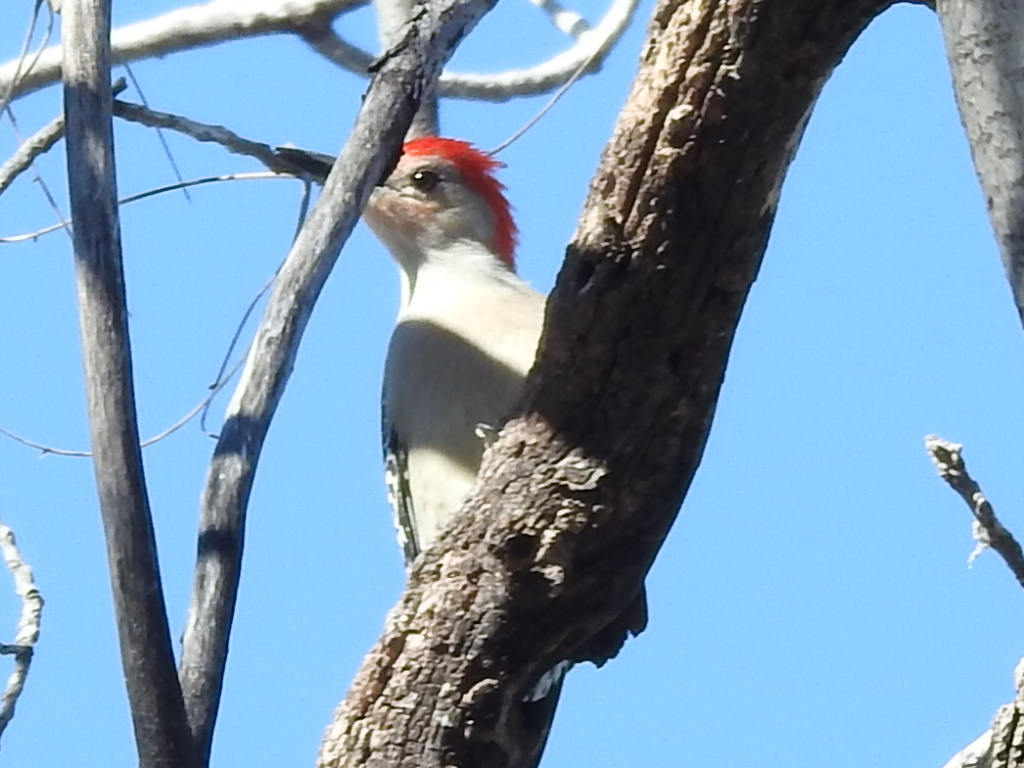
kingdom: Animalia
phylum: Chordata
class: Aves
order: Piciformes
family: Picidae
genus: Melanerpes
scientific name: Melanerpes carolinus
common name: Red-bellied woodpecker
